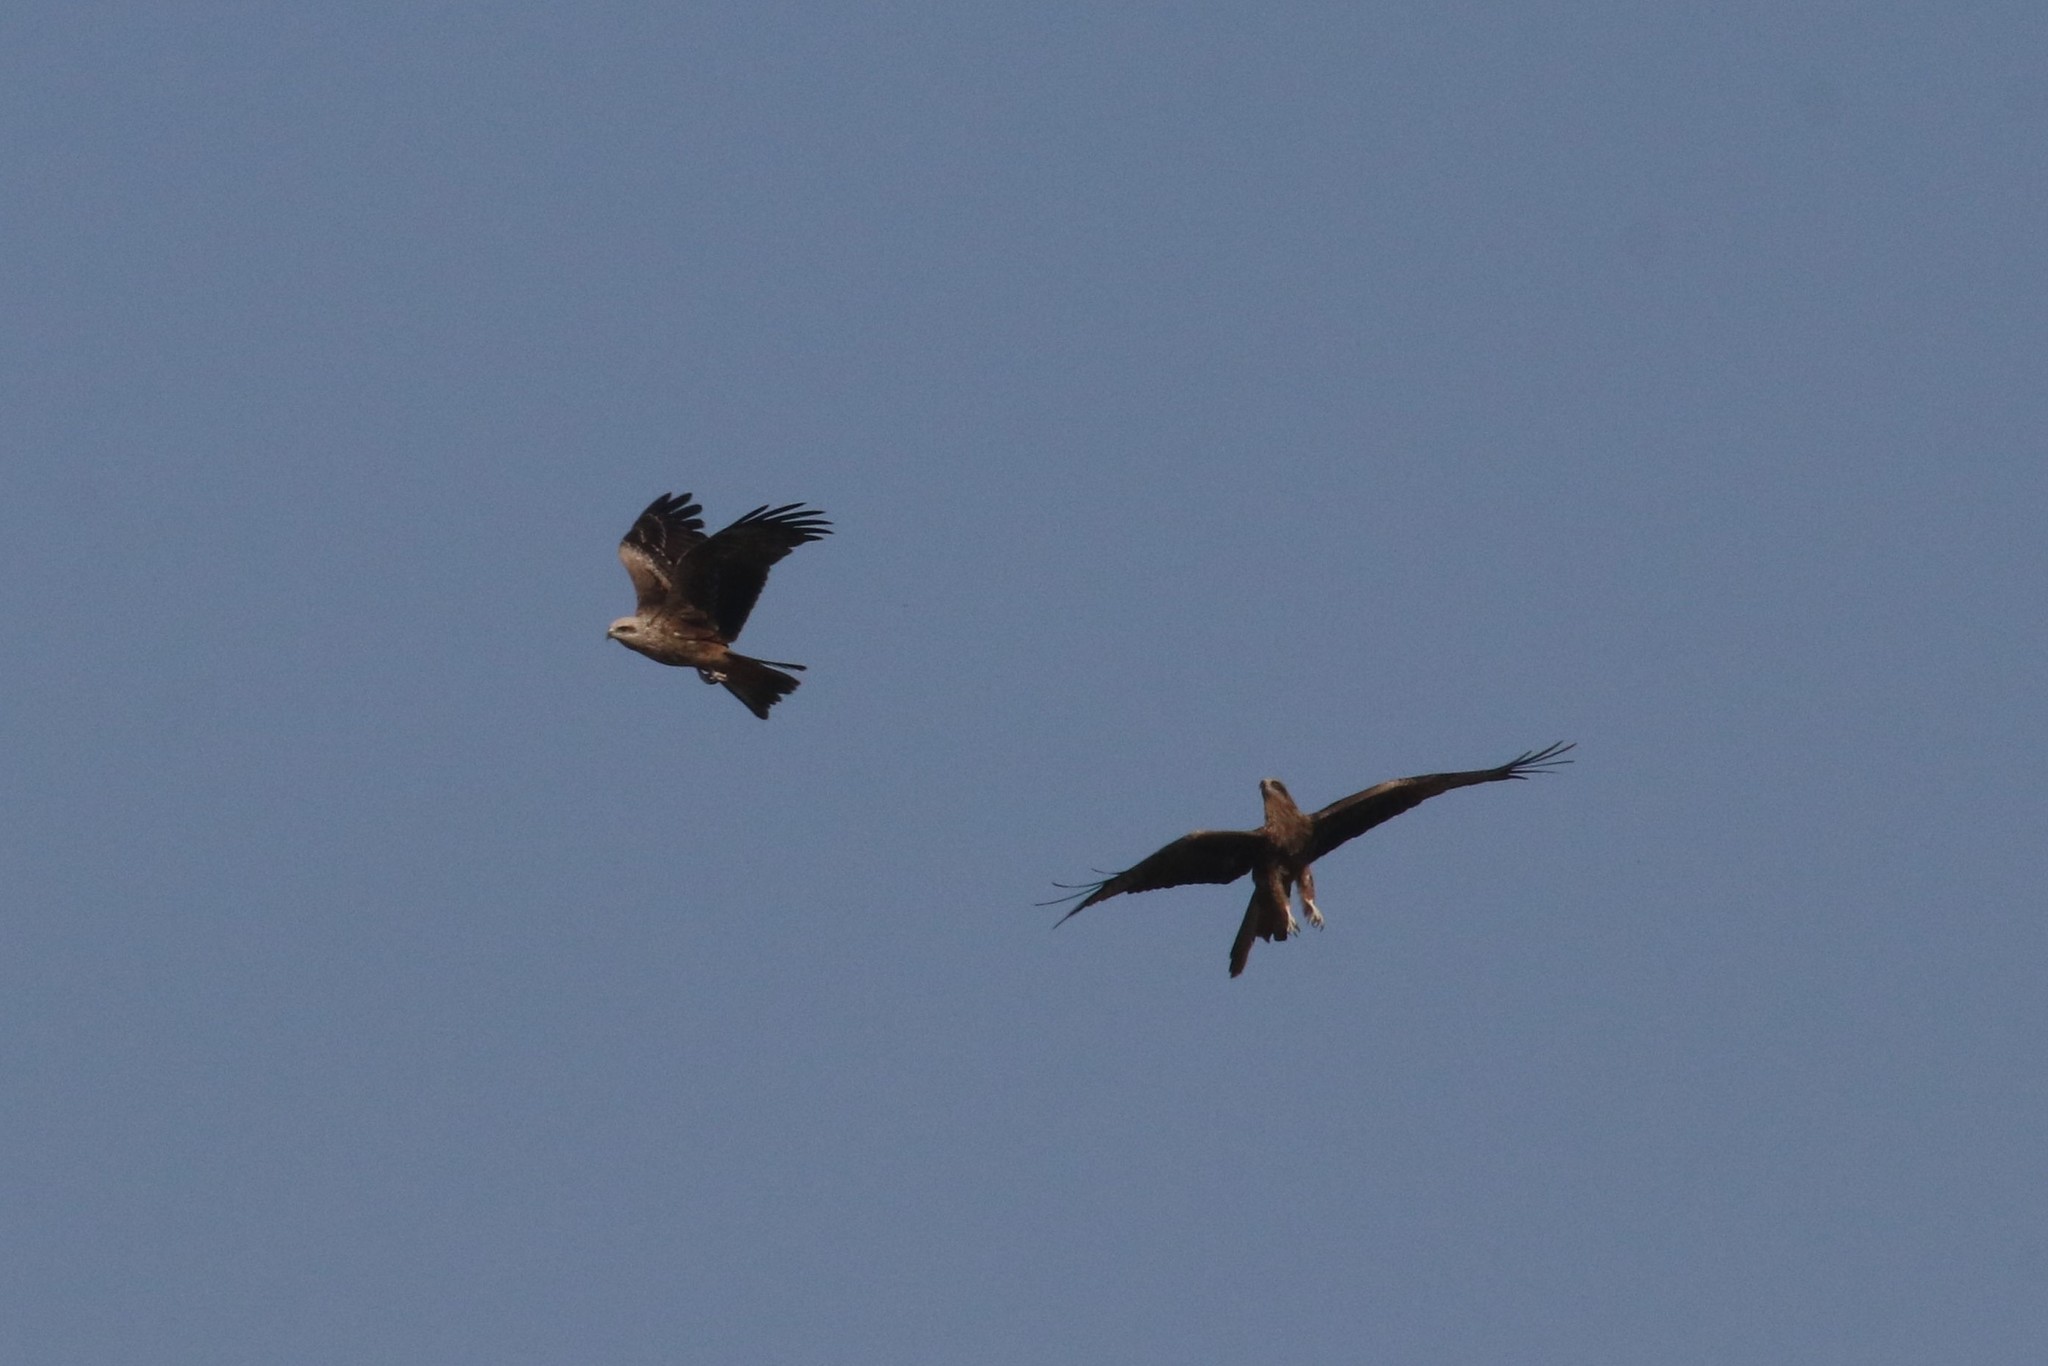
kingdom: Animalia
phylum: Chordata
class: Aves
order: Accipitriformes
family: Accipitridae
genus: Milvus
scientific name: Milvus migrans
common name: Black kite
